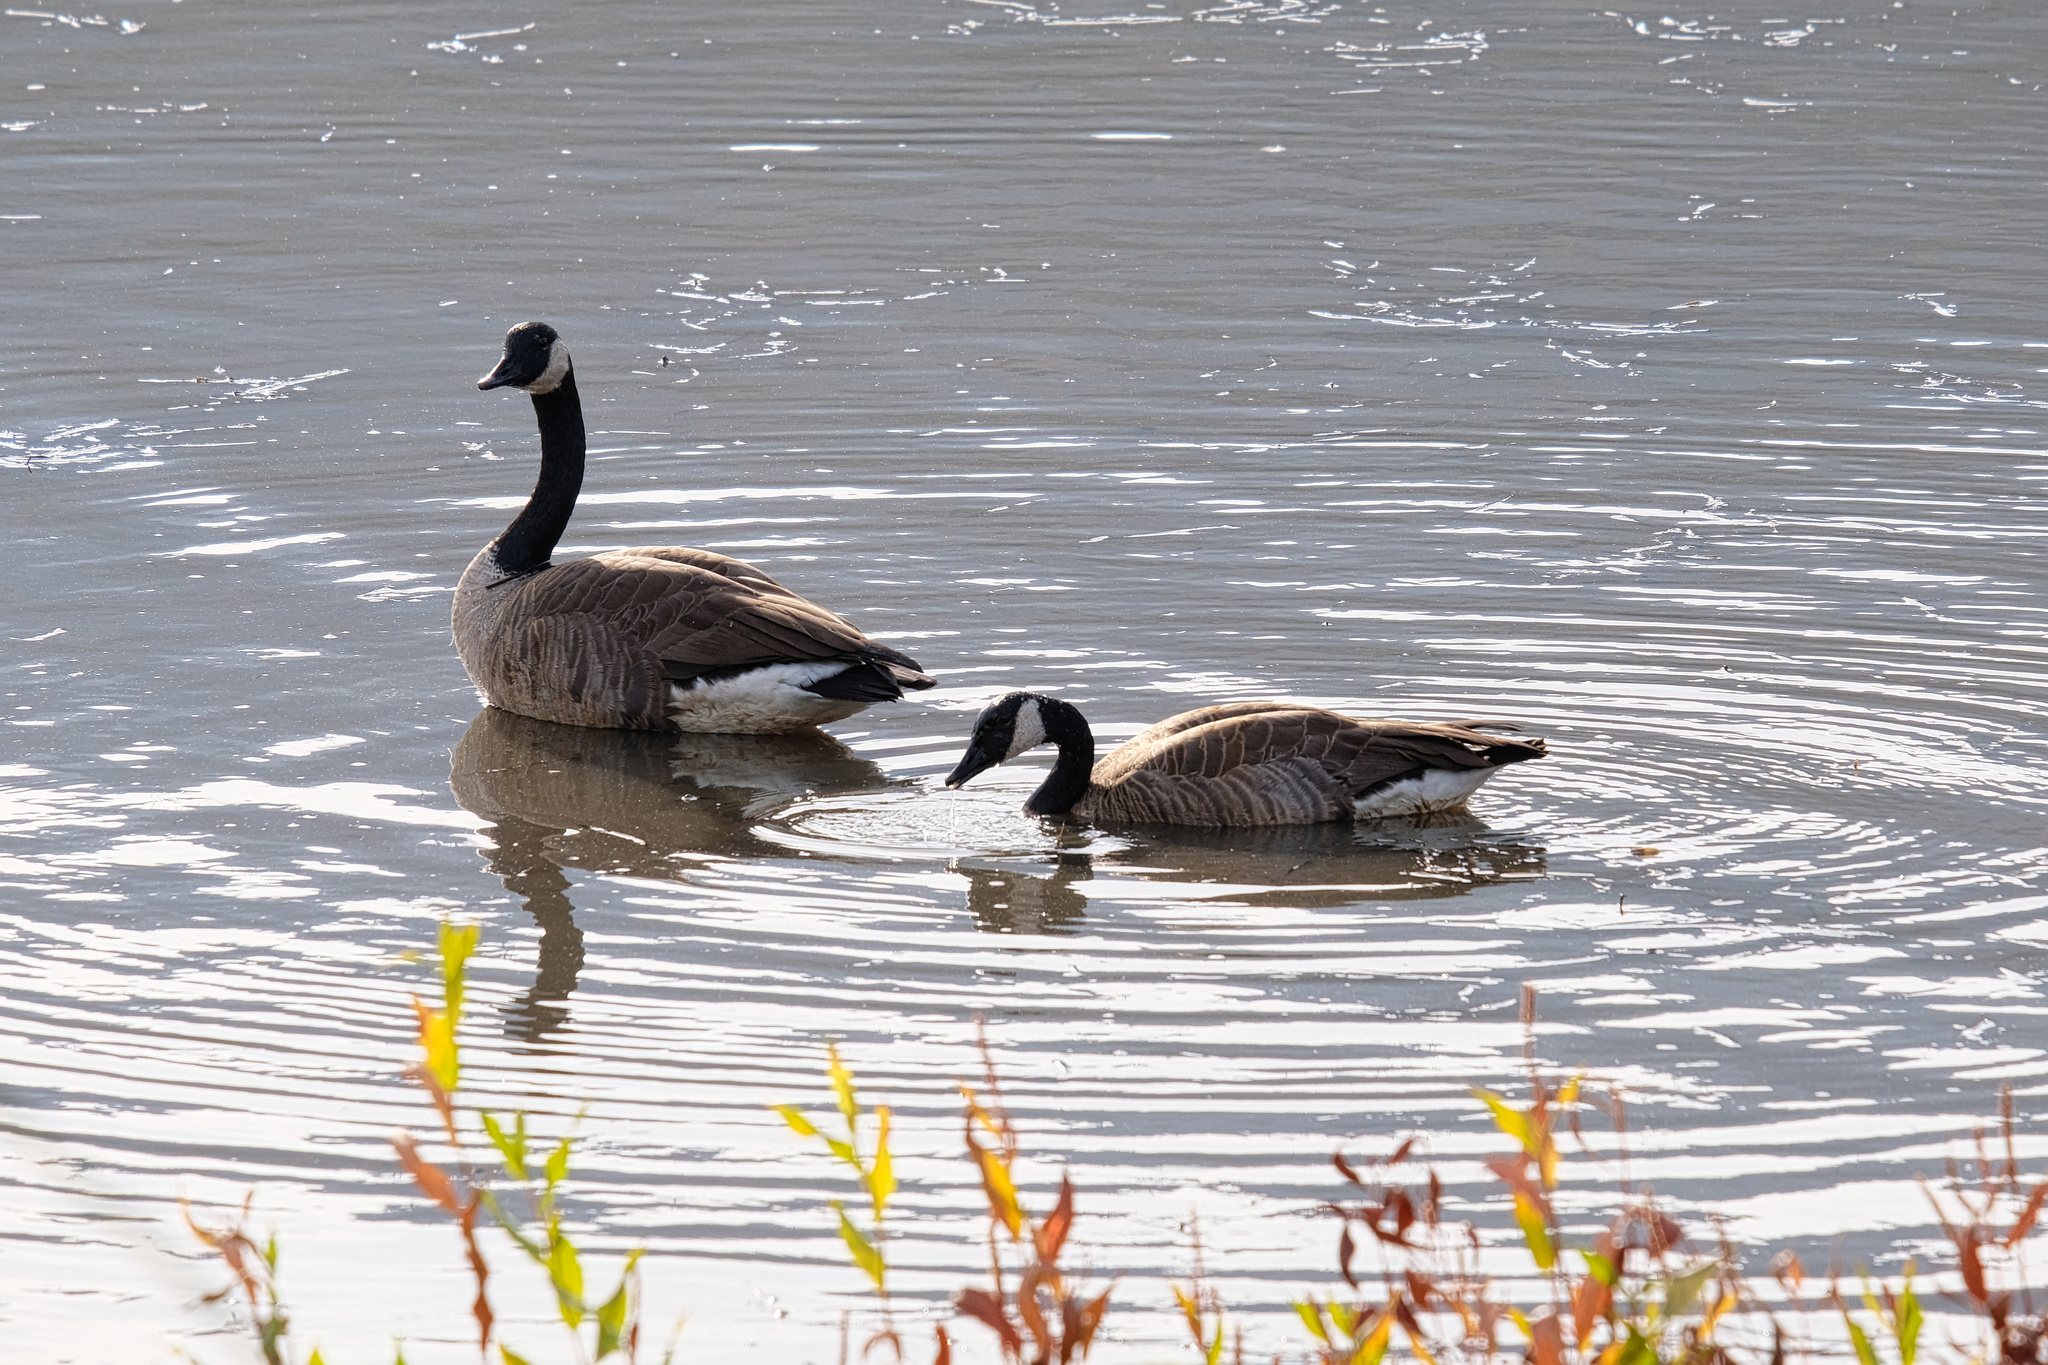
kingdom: Animalia
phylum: Chordata
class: Aves
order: Anseriformes
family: Anatidae
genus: Branta
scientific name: Branta canadensis
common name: Canada goose
